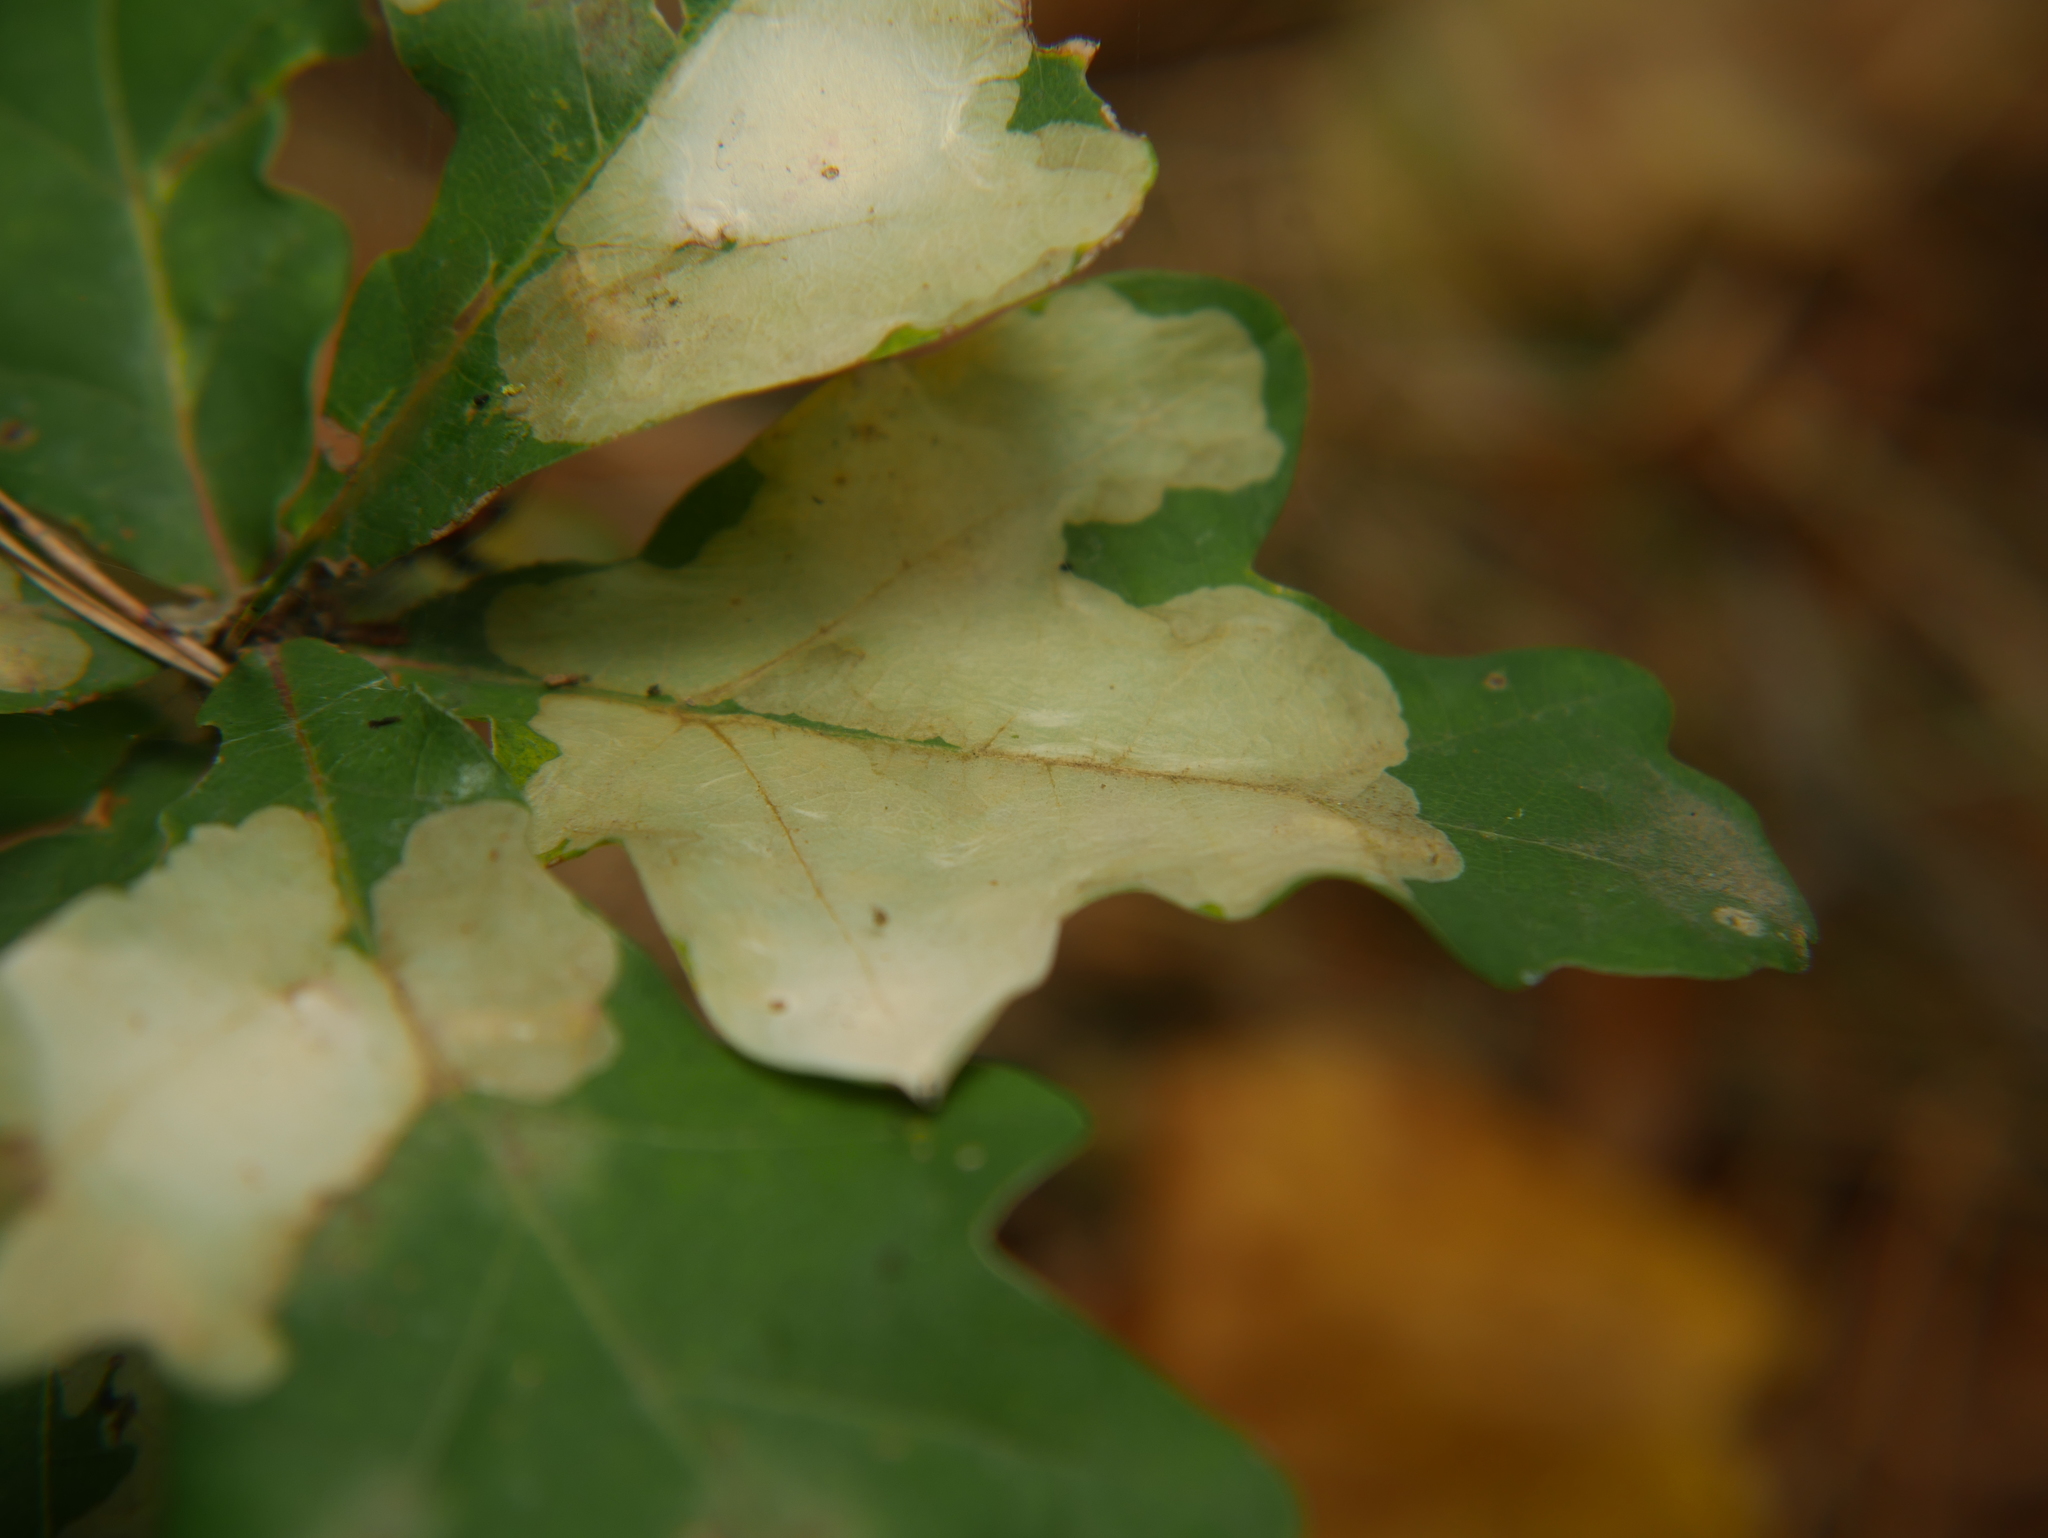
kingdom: Animalia
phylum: Arthropoda
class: Insecta
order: Lepidoptera
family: Tischeriidae
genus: Tischeria
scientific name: Tischeria ekebladella
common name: Oak carl
